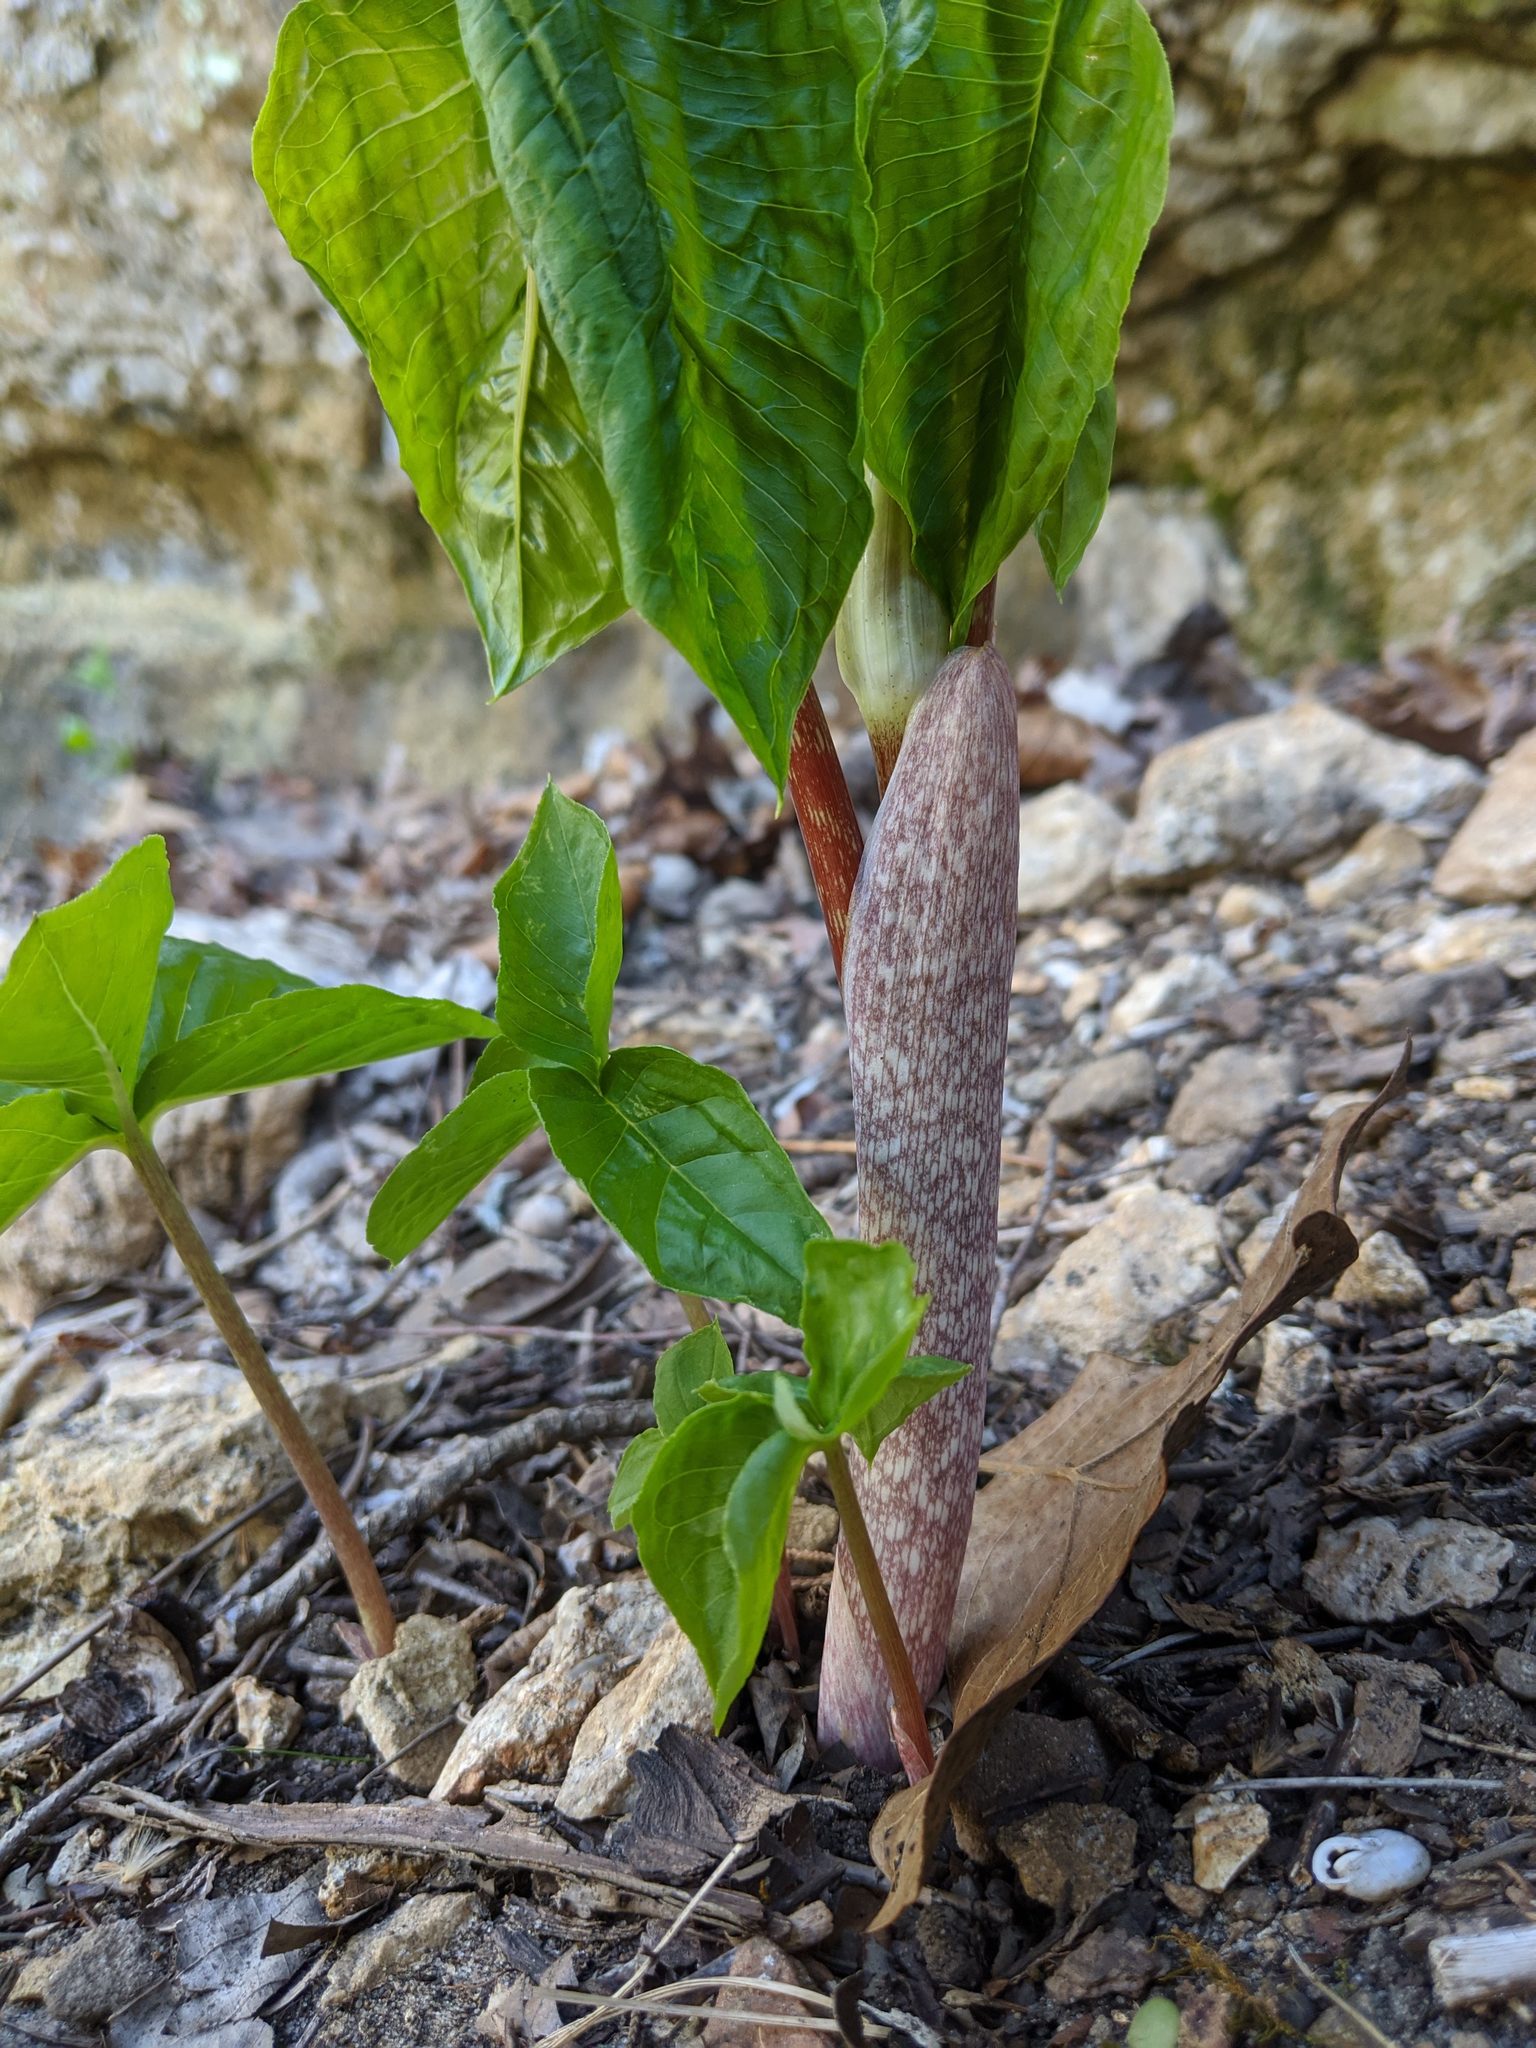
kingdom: Plantae
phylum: Tracheophyta
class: Liliopsida
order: Alismatales
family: Araceae
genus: Arisaema
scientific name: Arisaema triphyllum
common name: Jack-in-the-pulpit
